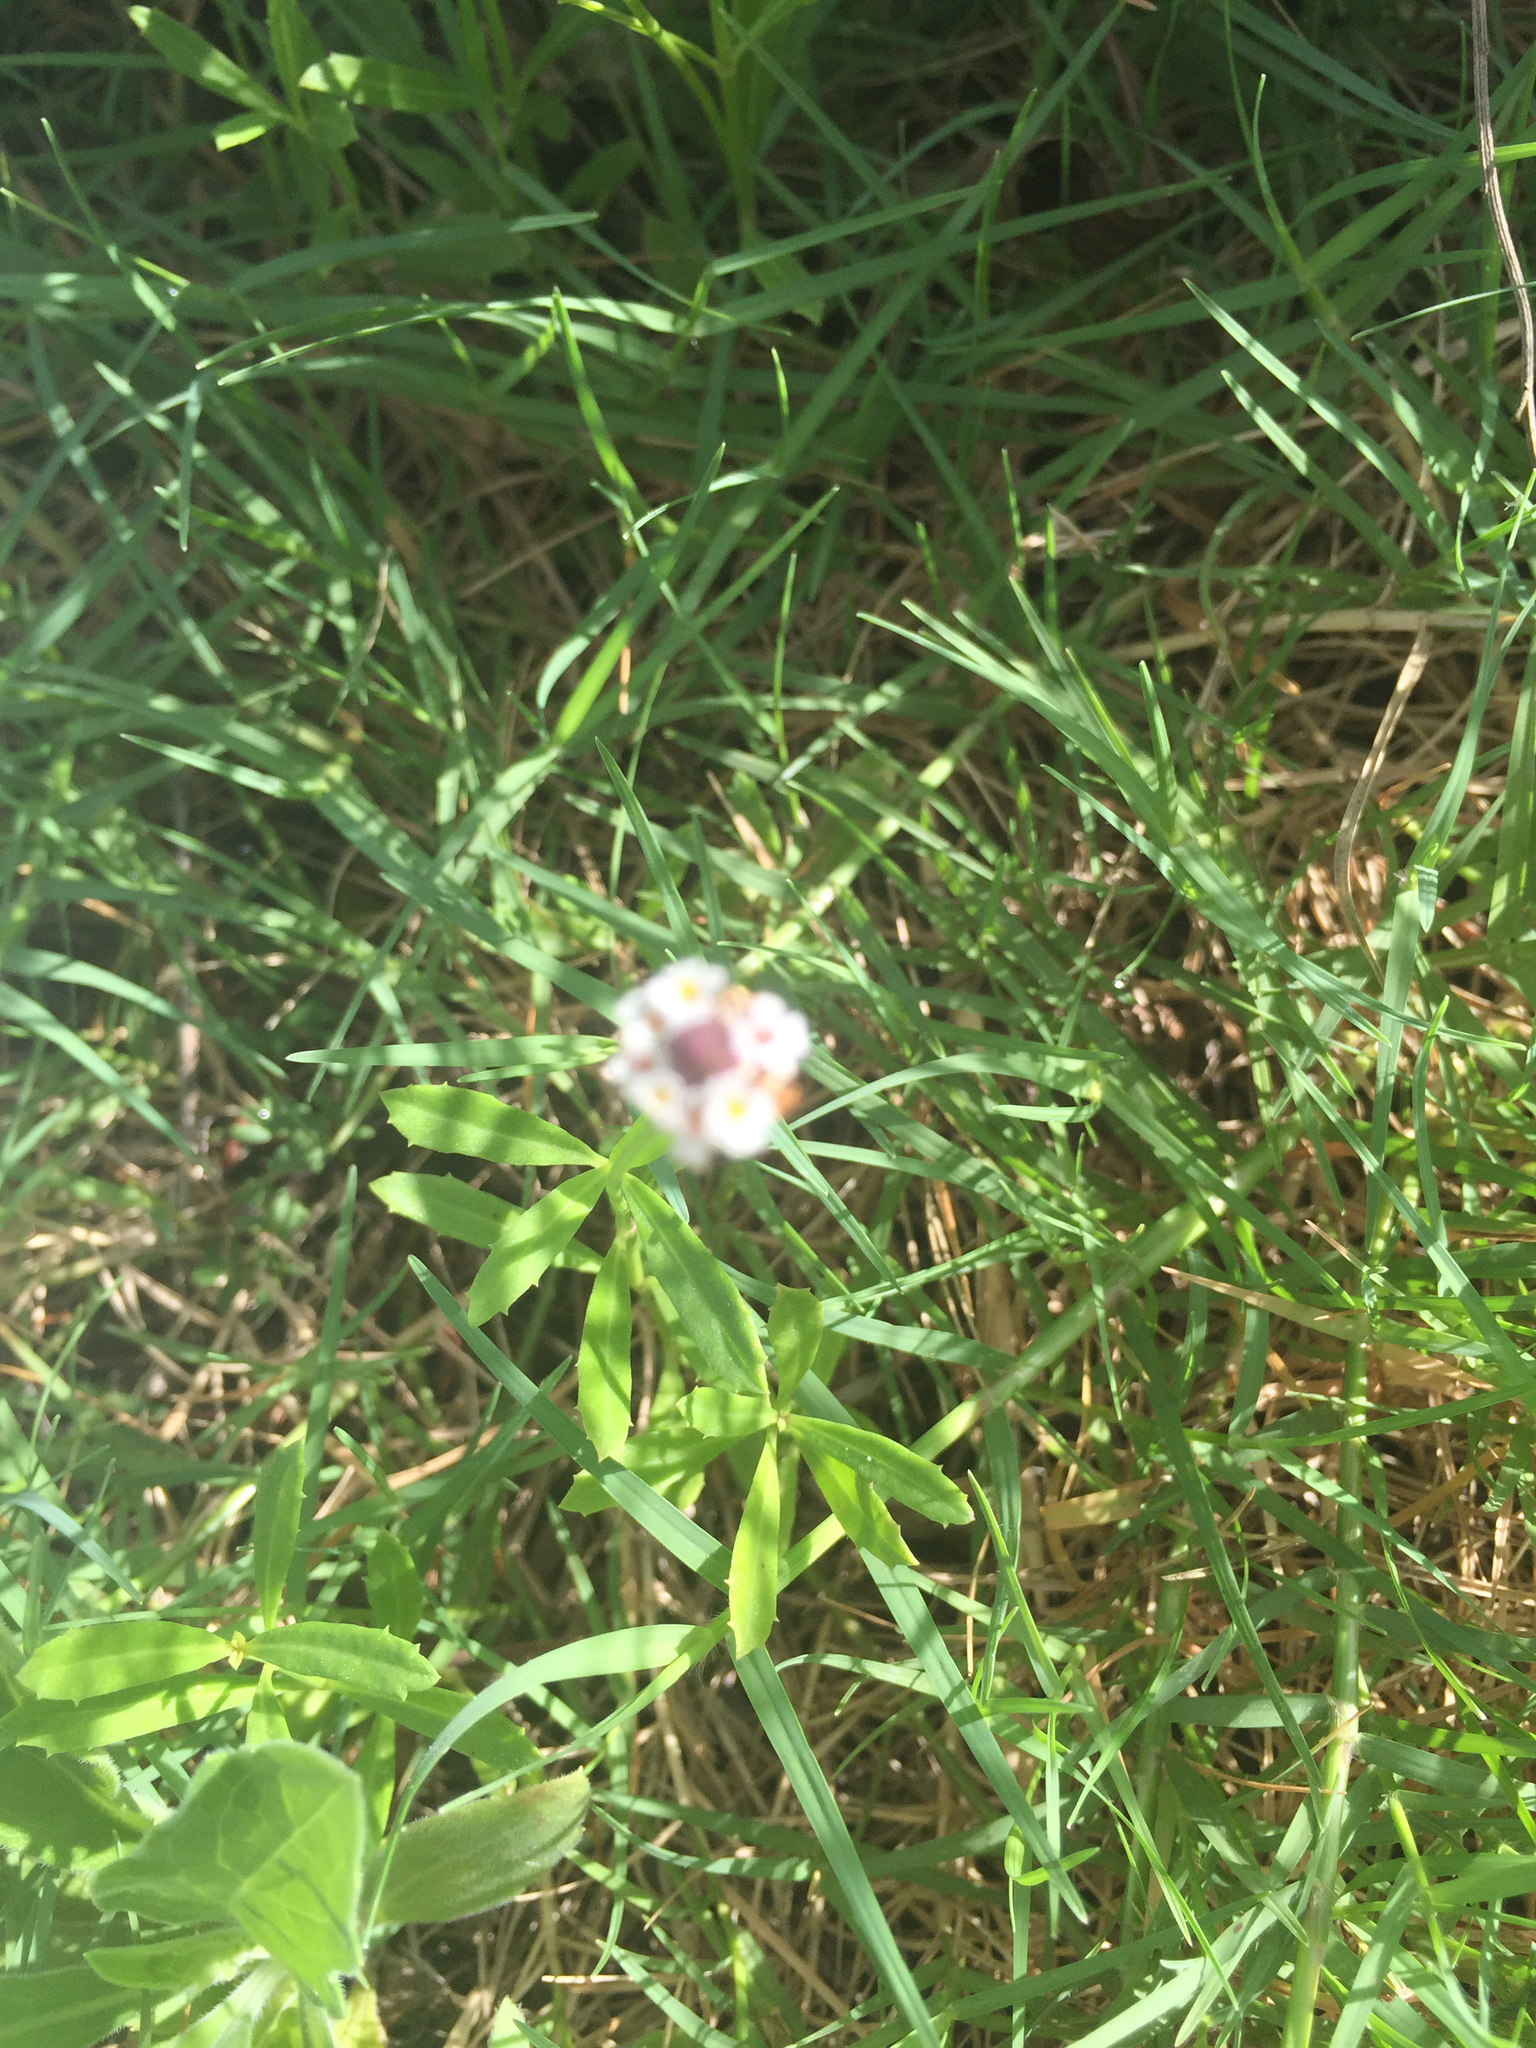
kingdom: Plantae
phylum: Tracheophyta
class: Magnoliopsida
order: Lamiales
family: Verbenaceae
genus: Phyla
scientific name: Phyla nodiflora
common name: Frogfruit
